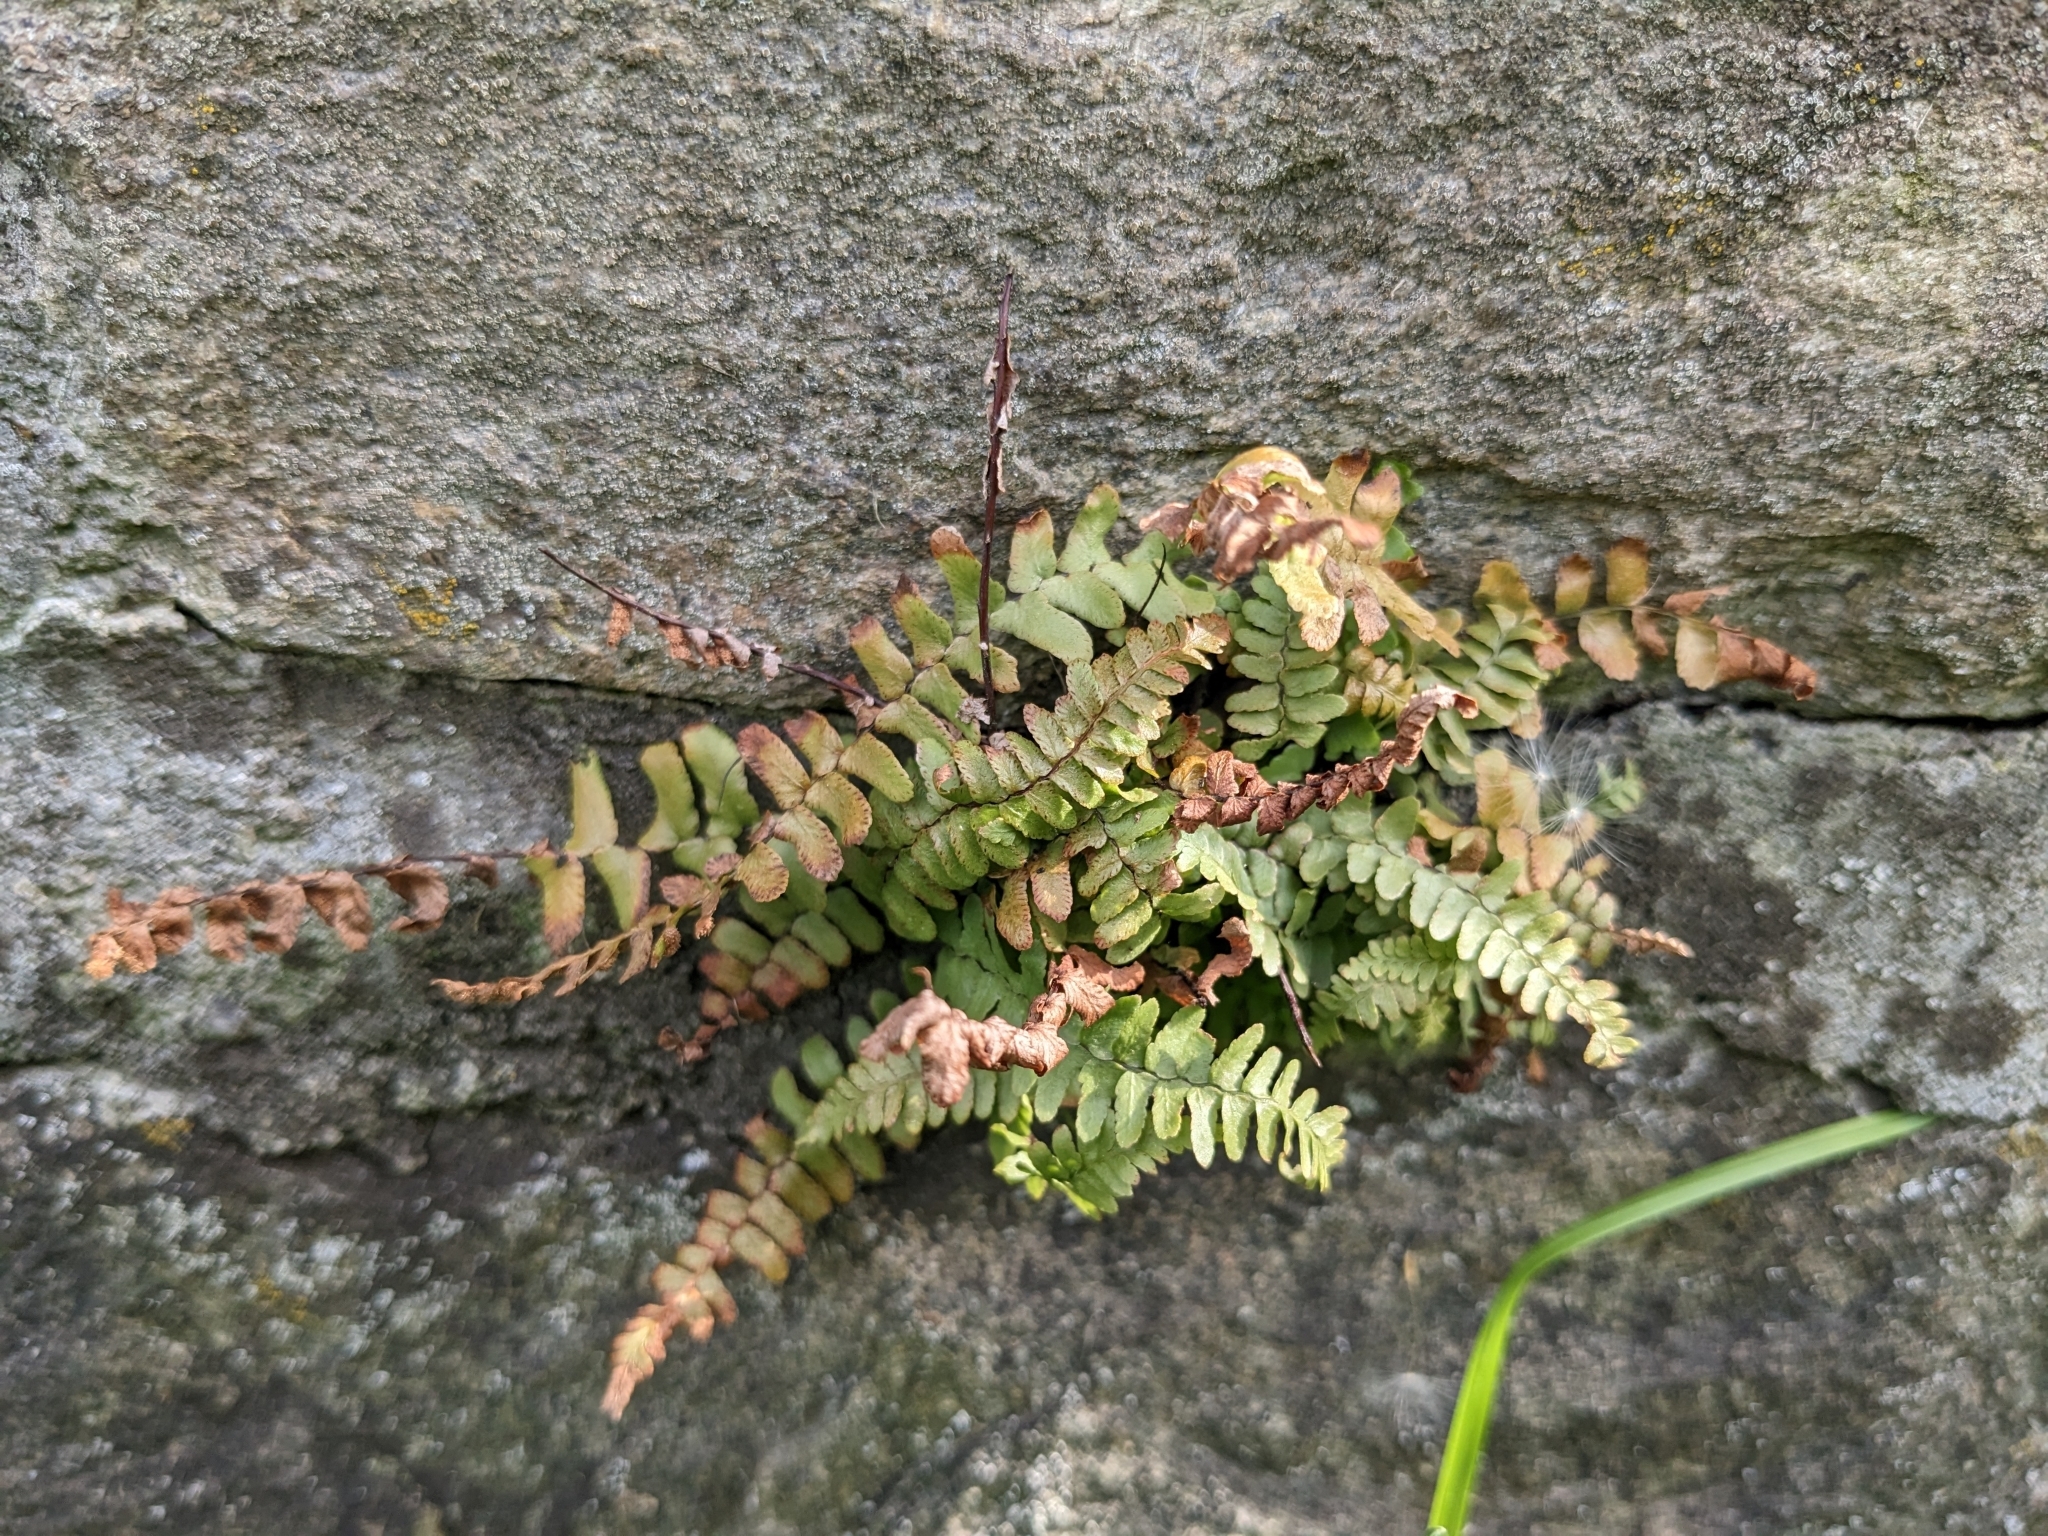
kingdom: Plantae
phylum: Tracheophyta
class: Polypodiopsida
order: Polypodiales
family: Aspleniaceae
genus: Asplenium
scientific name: Asplenium platyneuron
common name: Ebony spleenwort
